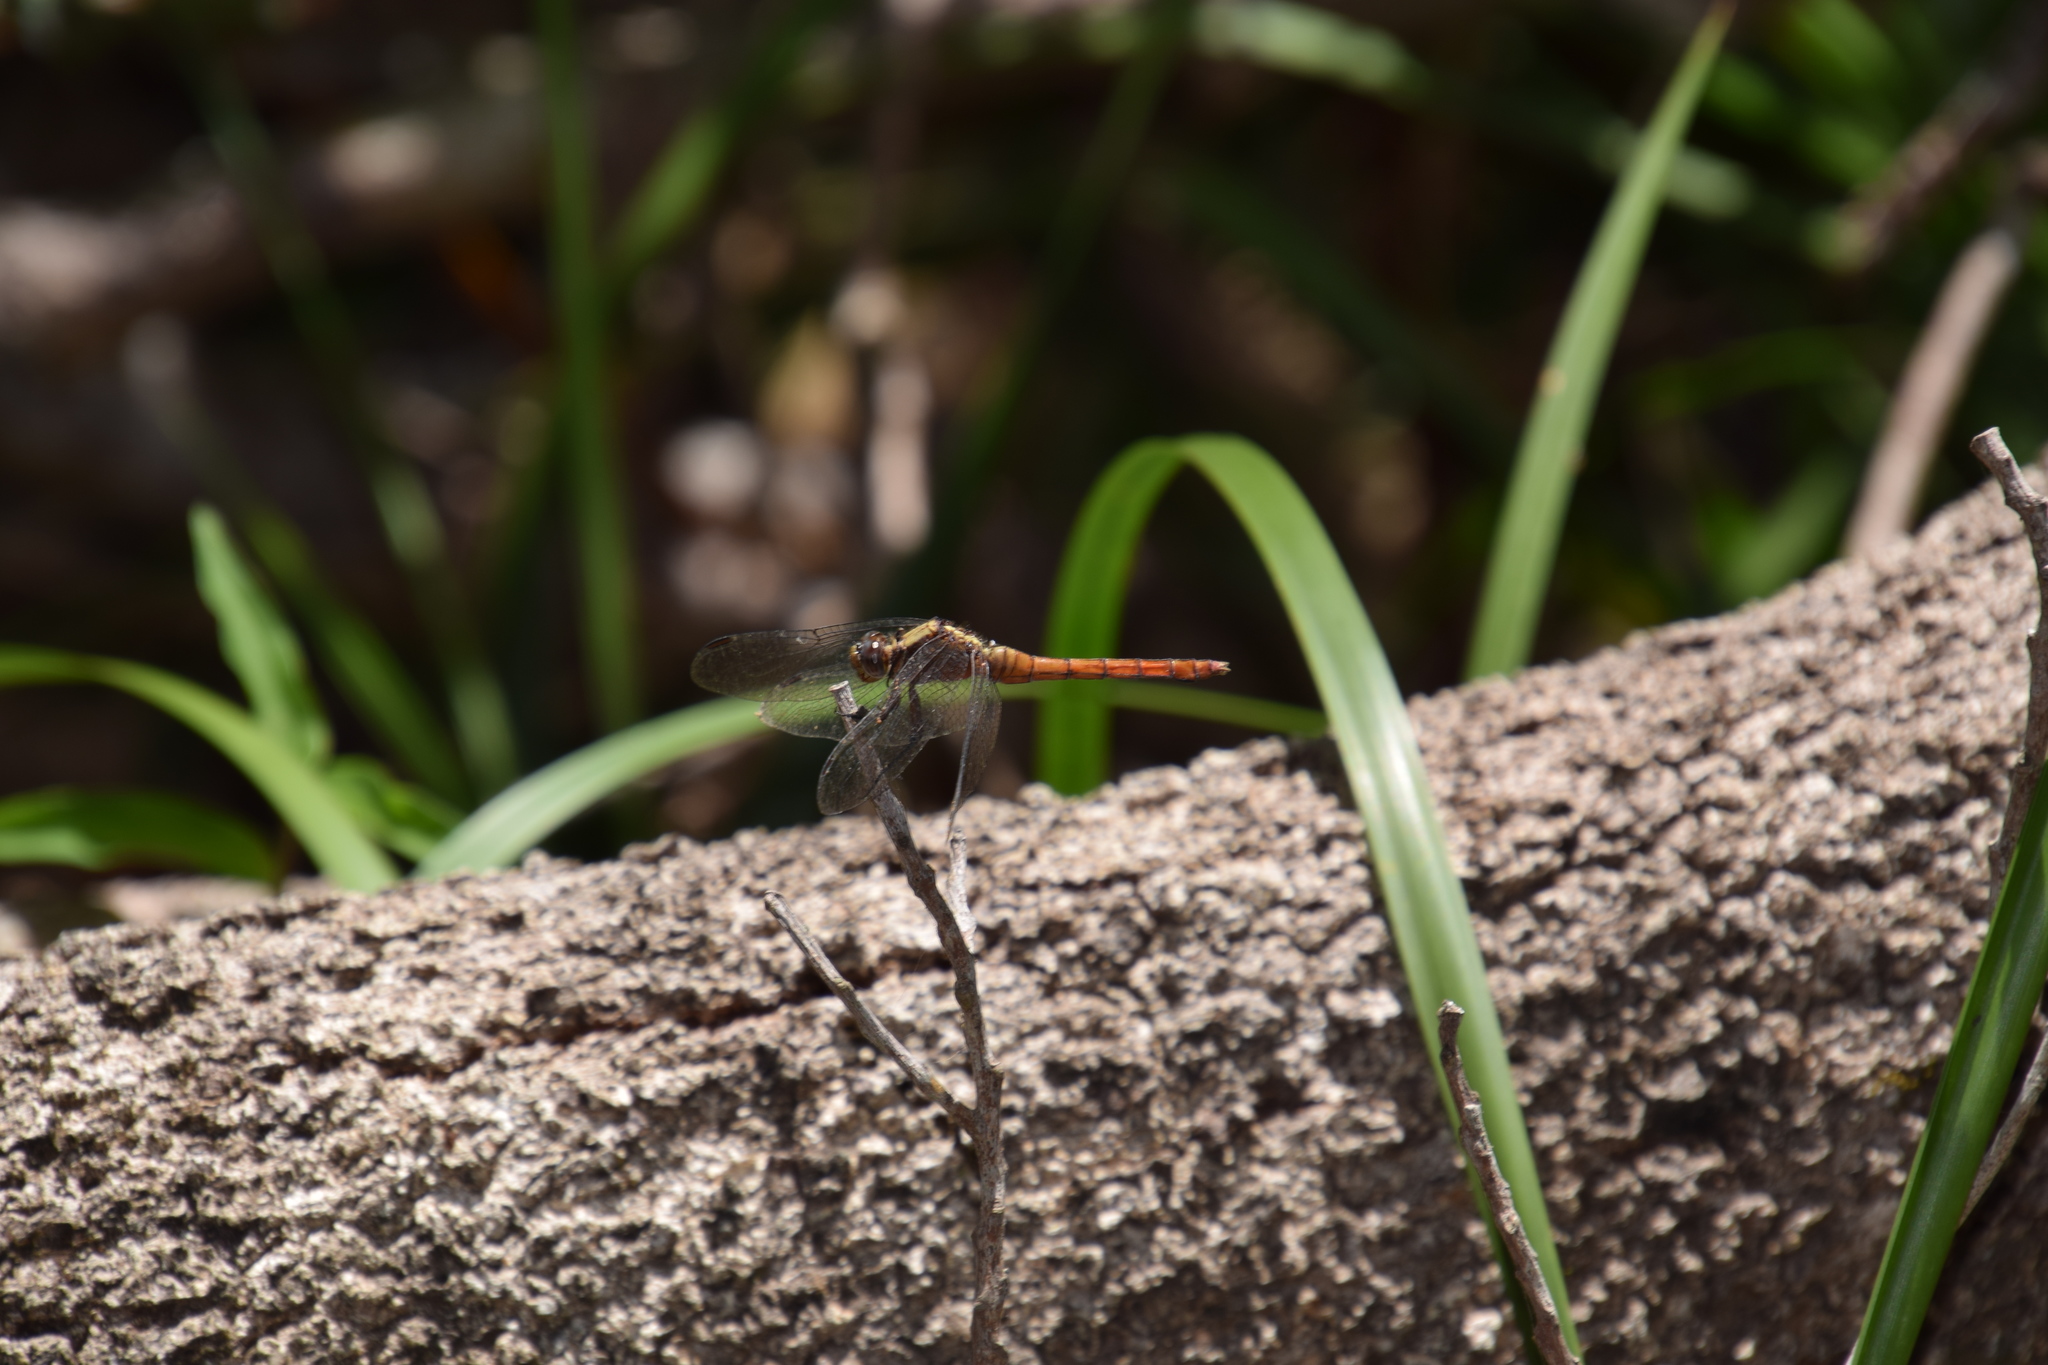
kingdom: Animalia
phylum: Arthropoda
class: Insecta
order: Odonata
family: Libellulidae
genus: Orthetrum
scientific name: Orthetrum villosovittatum
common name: Firery skimmer
